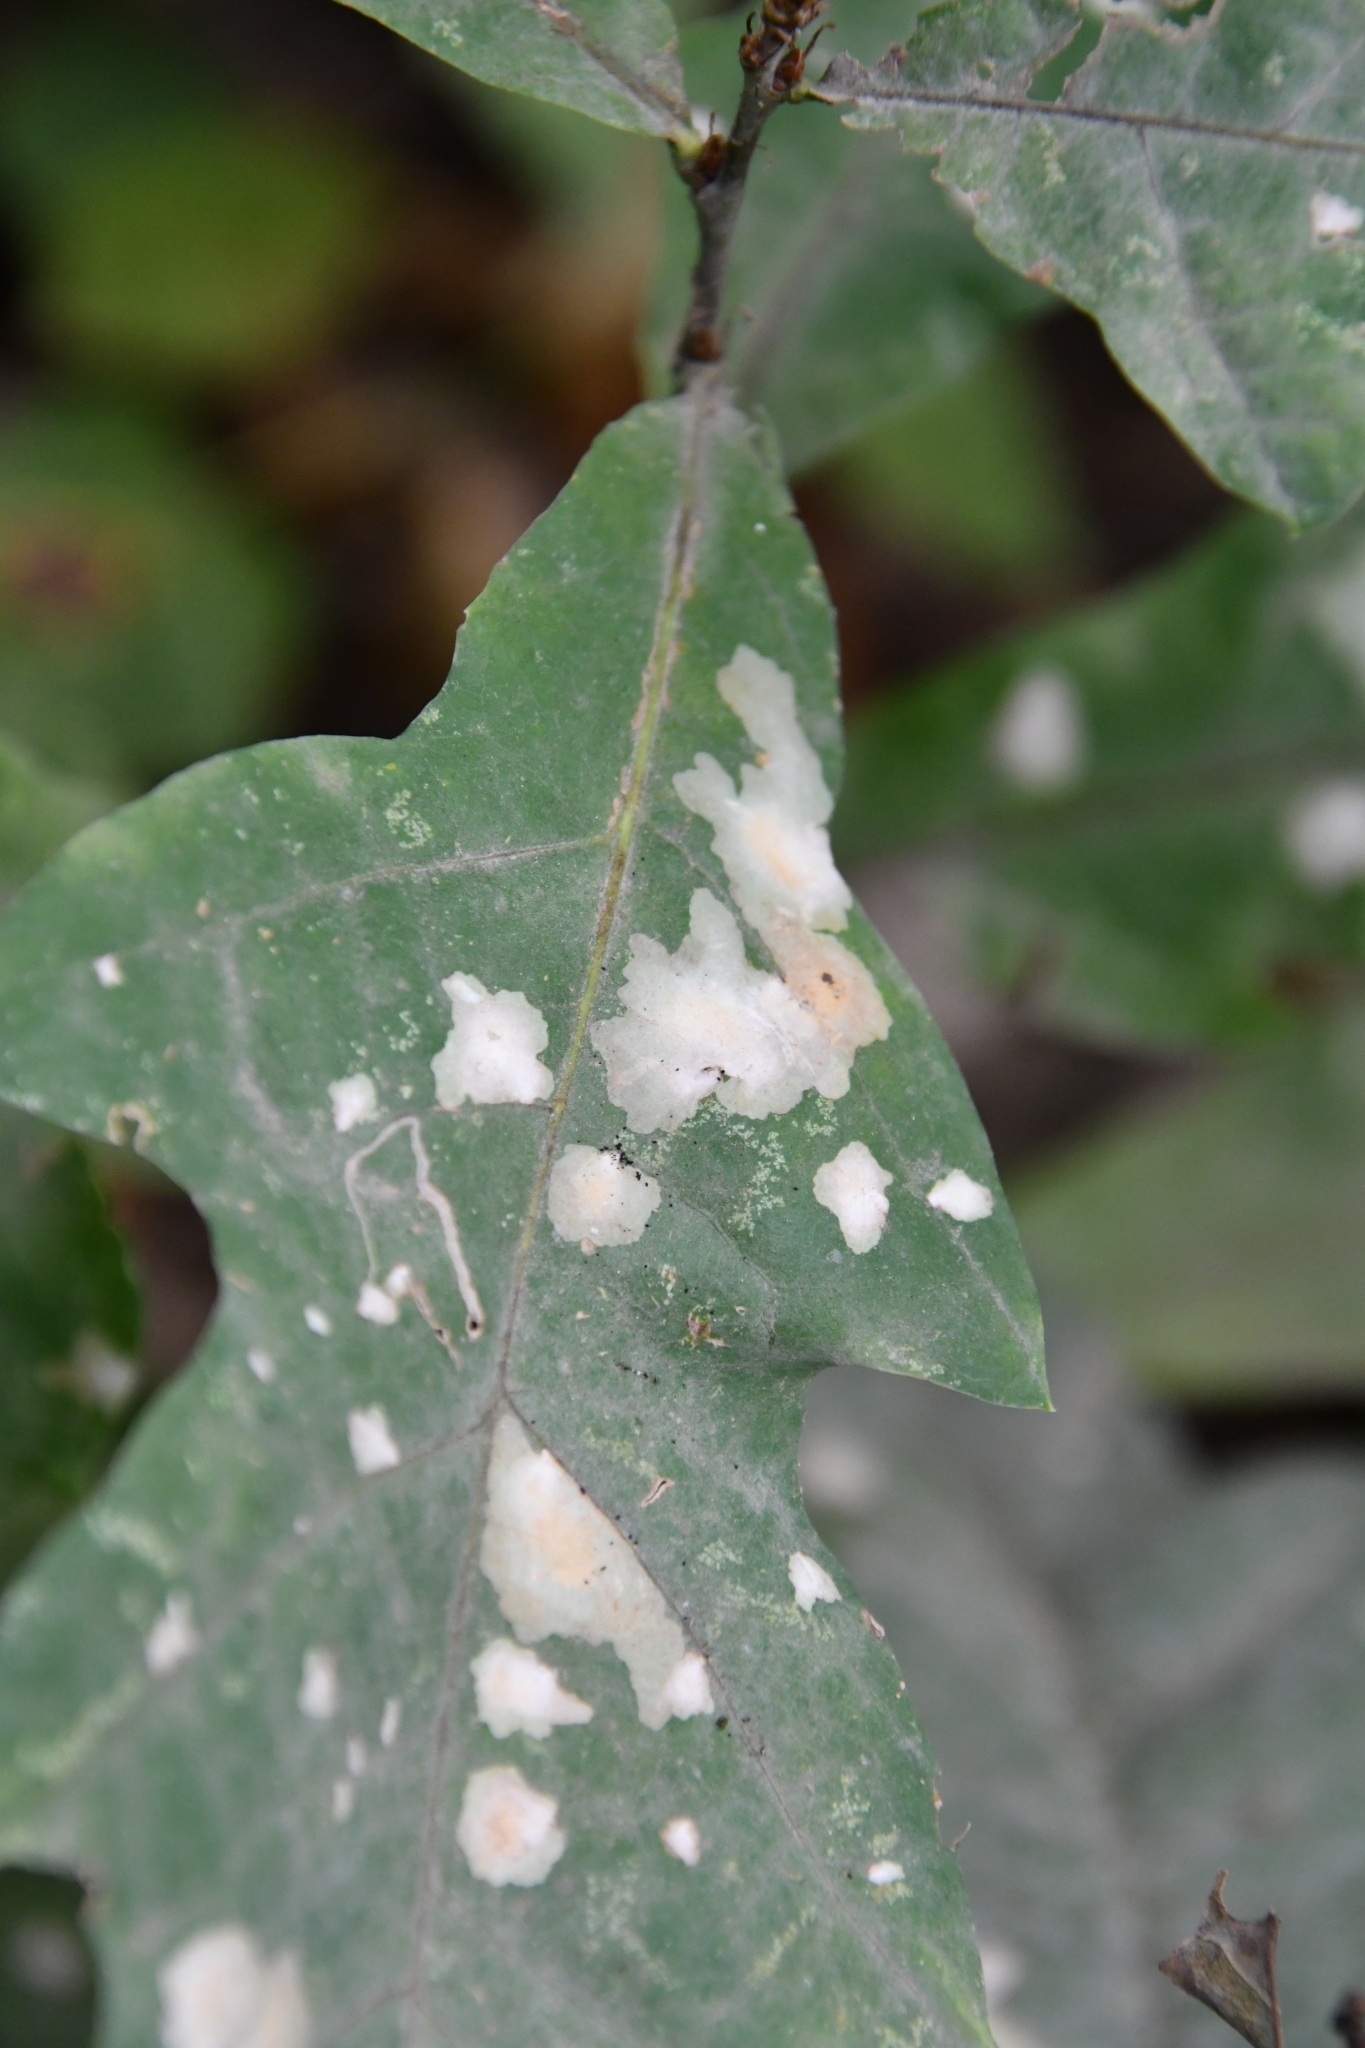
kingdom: Animalia
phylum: Arthropoda
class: Insecta
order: Lepidoptera
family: Tischeriidae
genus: Tischeria
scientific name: Tischeria ekebladella
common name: Oak carl
